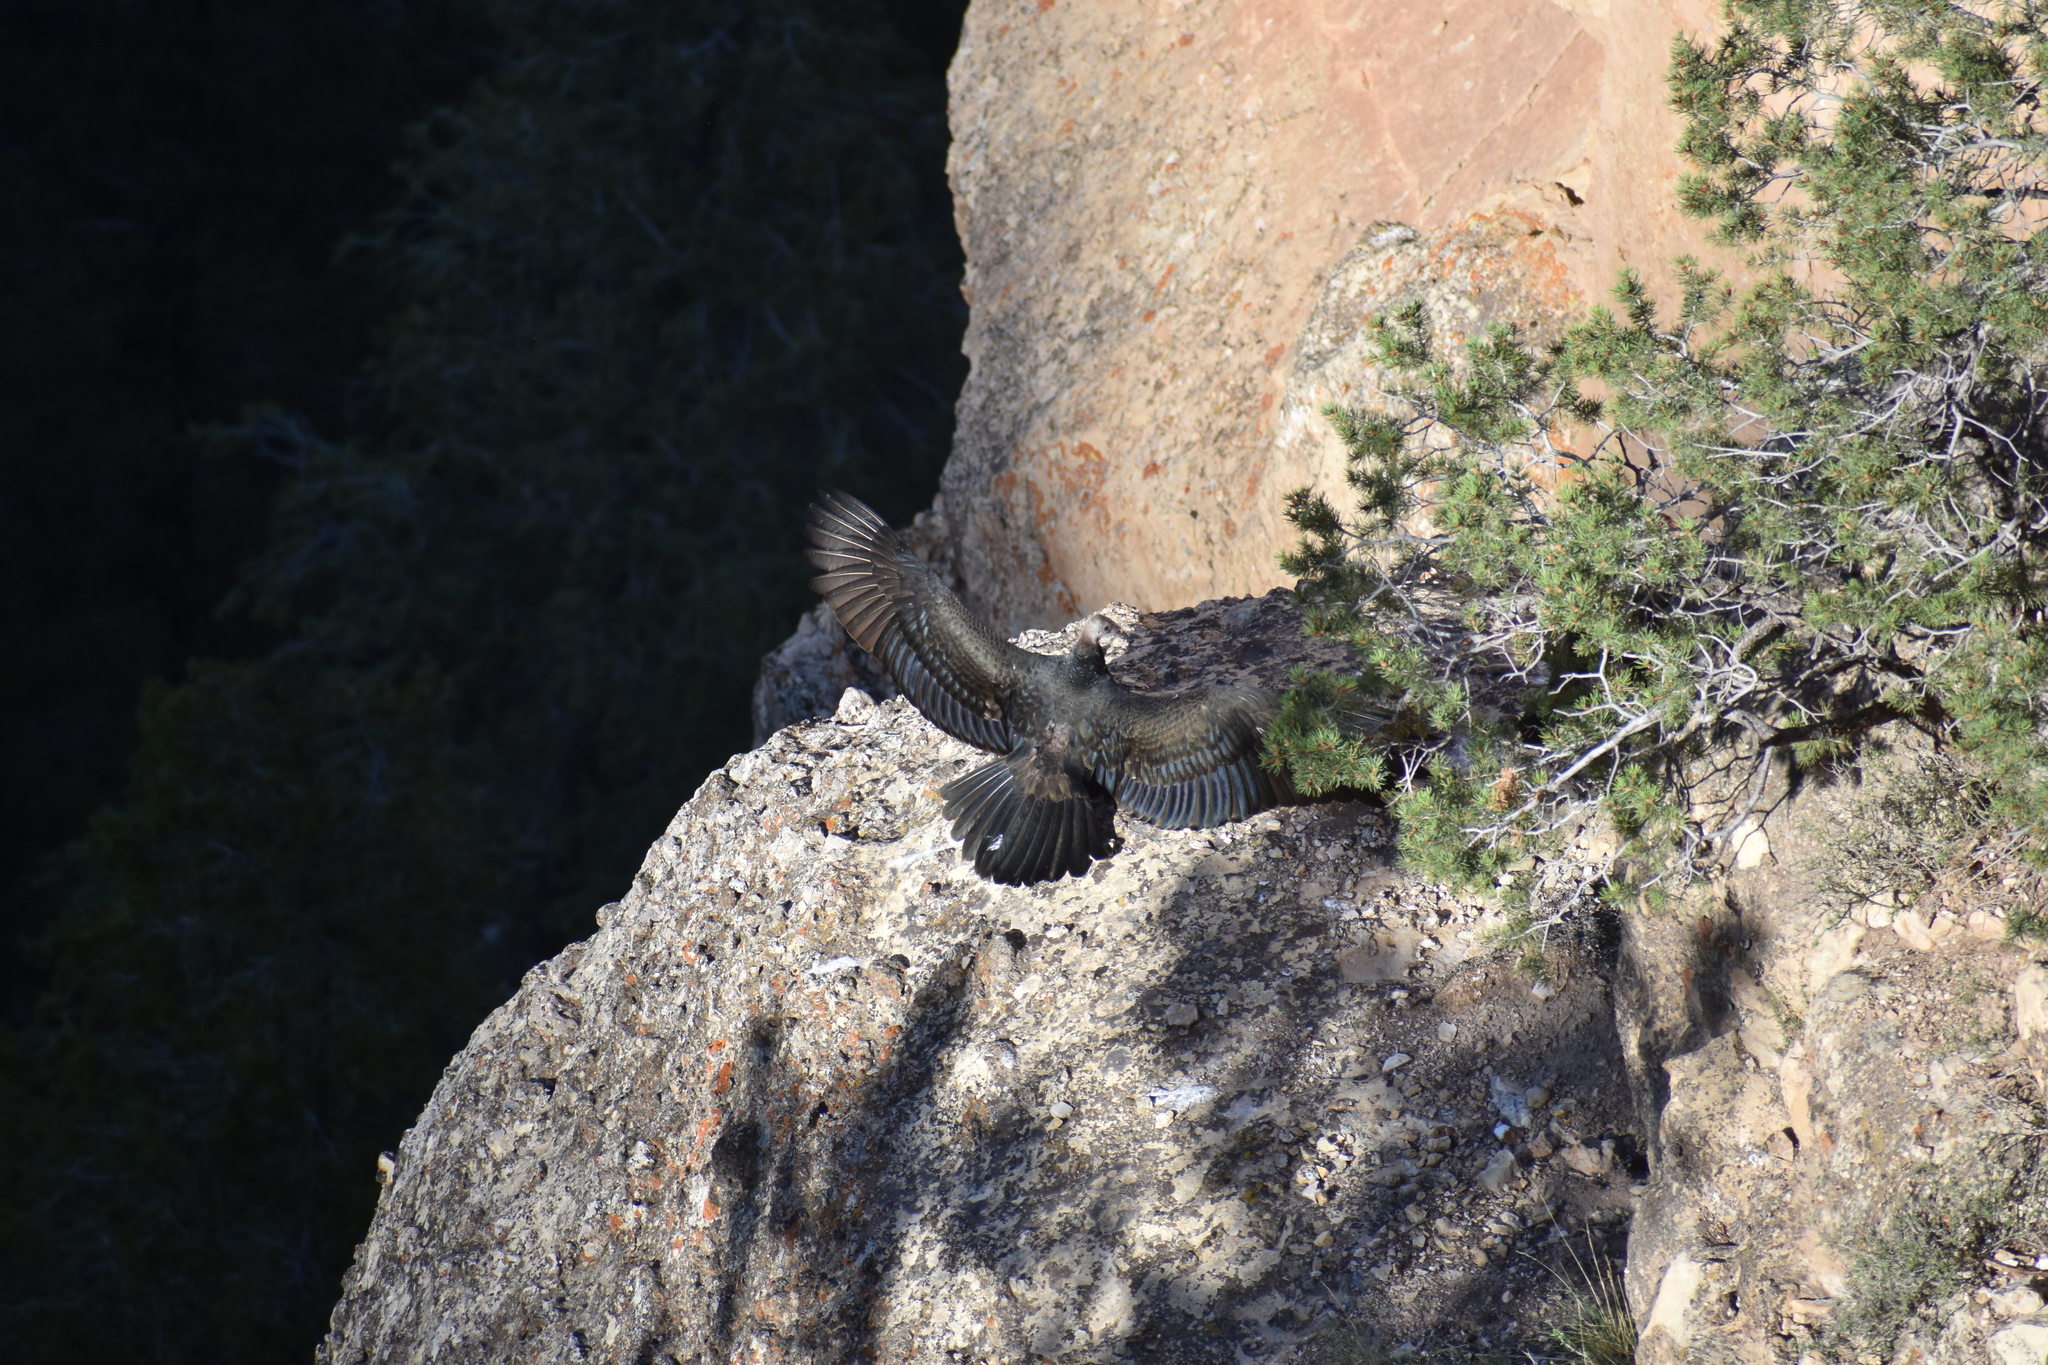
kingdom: Animalia
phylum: Chordata
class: Aves
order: Accipitriformes
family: Cathartidae
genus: Cathartes
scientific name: Cathartes aura
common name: Turkey vulture
